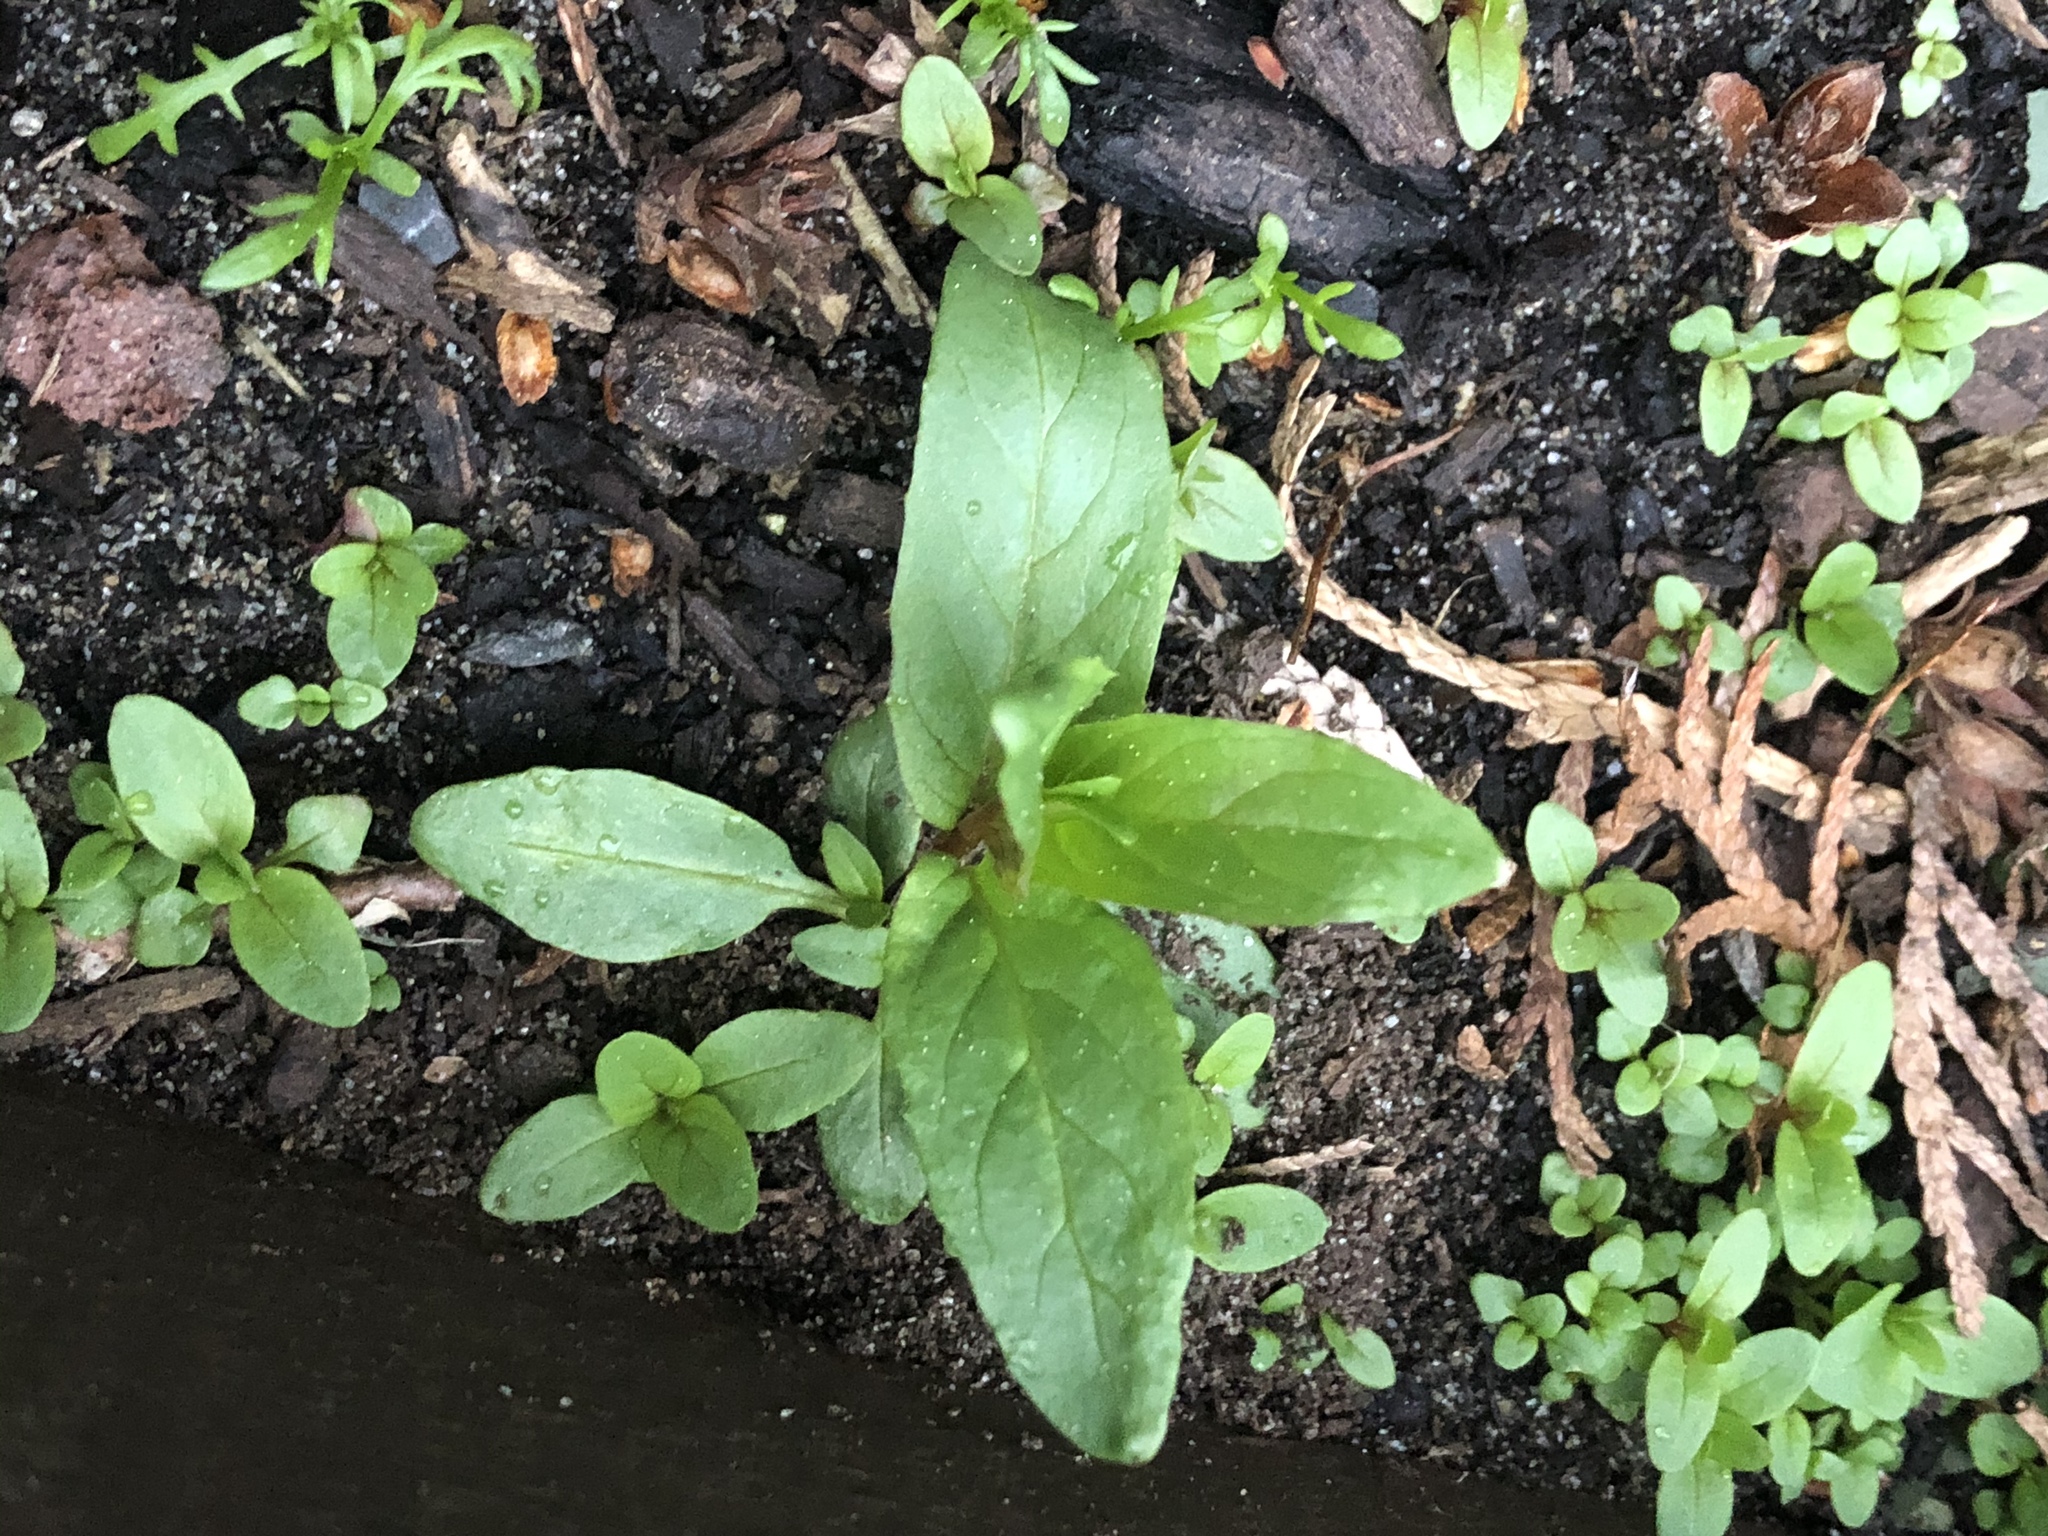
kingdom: Plantae
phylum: Tracheophyta
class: Magnoliopsida
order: Myrtales
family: Onagraceae
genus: Epilobium
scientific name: Epilobium ciliatum
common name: American willowherb
